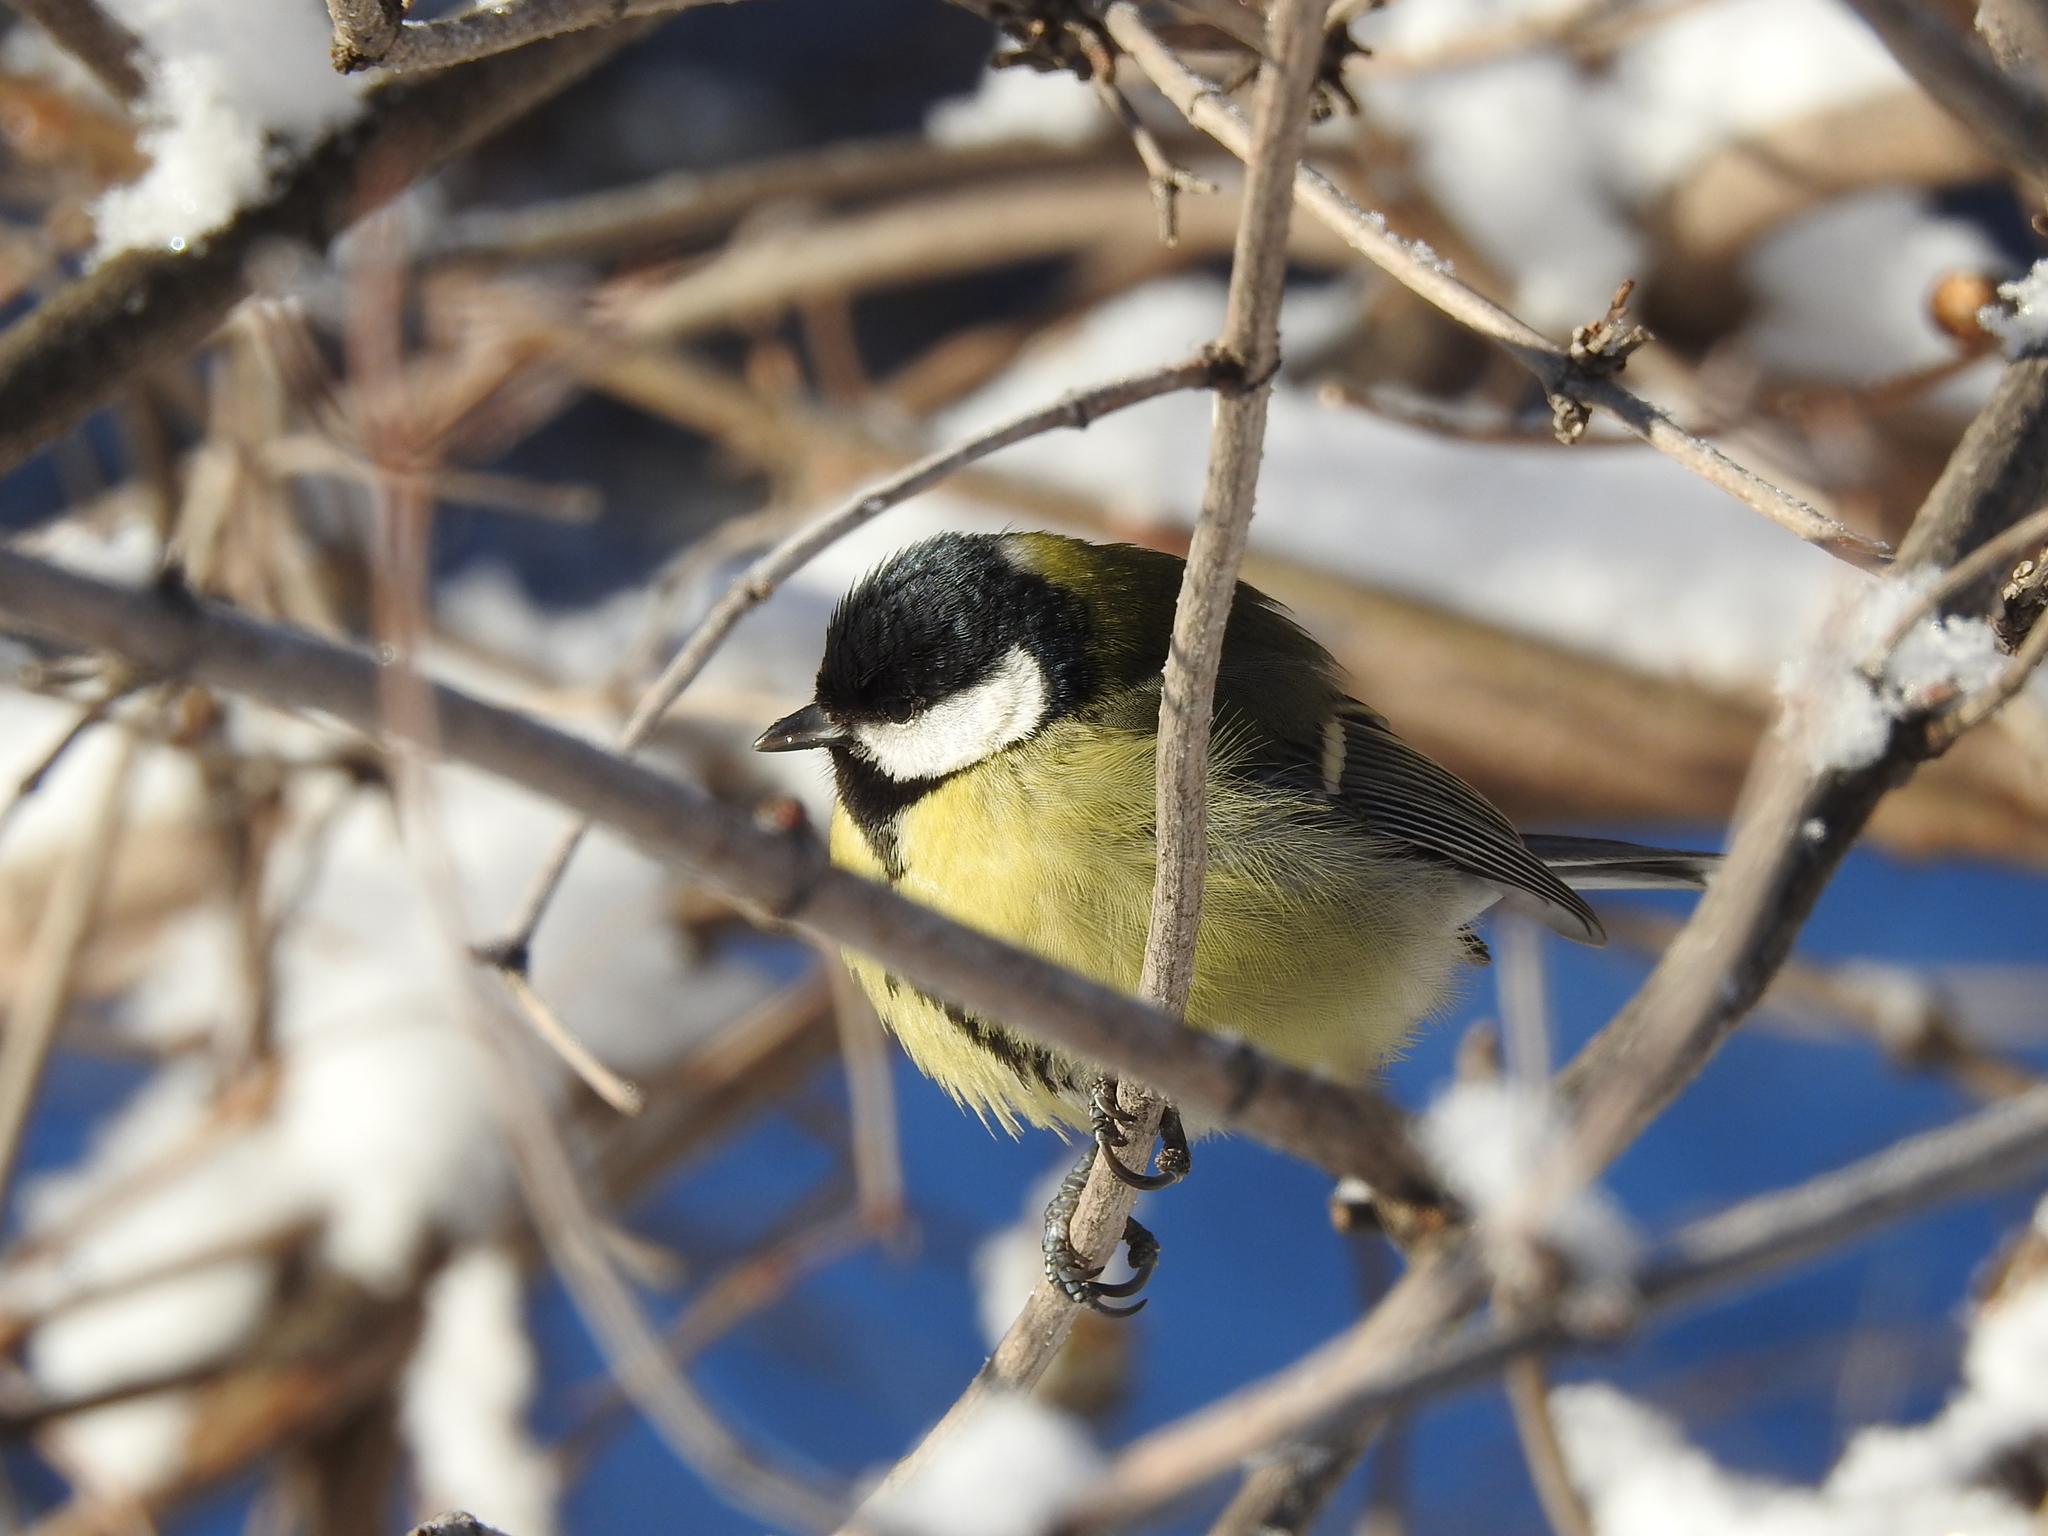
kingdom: Animalia
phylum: Chordata
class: Aves
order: Passeriformes
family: Paridae
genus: Parus
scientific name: Parus major
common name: Great tit
